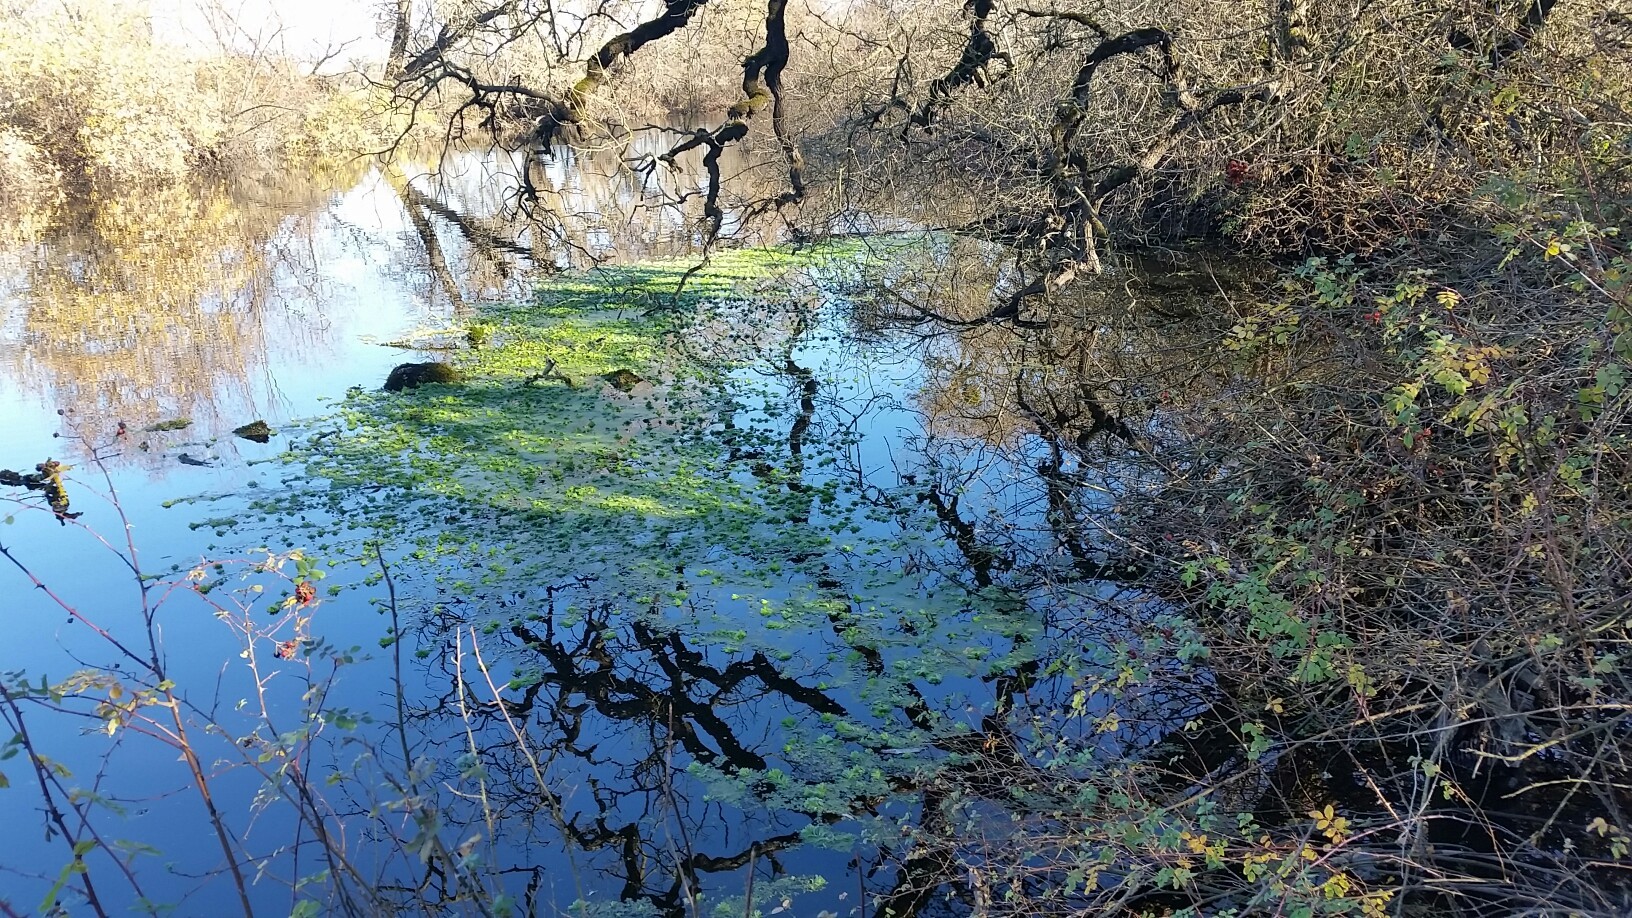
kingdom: Plantae
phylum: Tracheophyta
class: Magnoliopsida
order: Saxifragales
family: Haloragaceae
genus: Myriophyllum
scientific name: Myriophyllum aquaticum
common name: Parrot's feather
